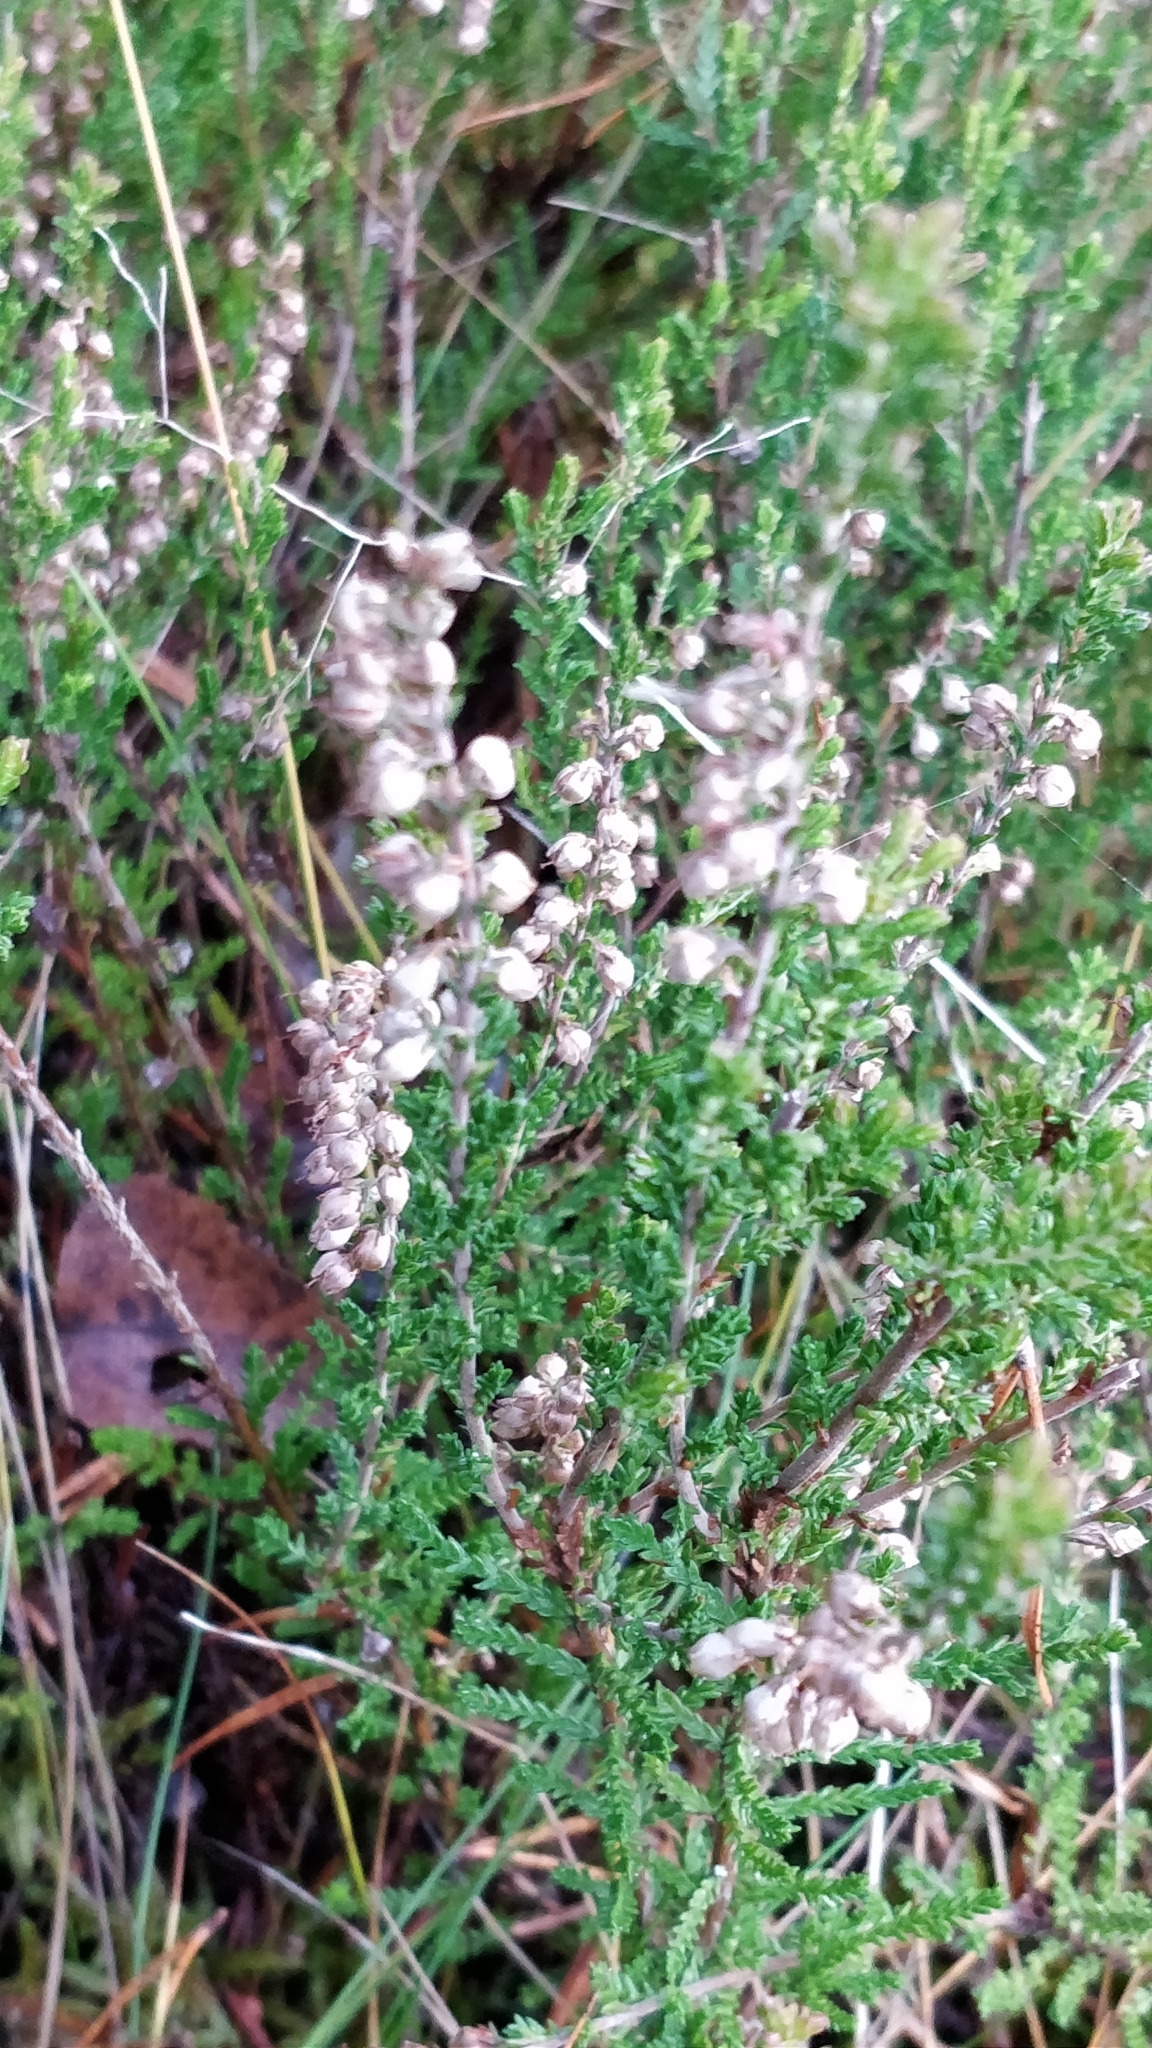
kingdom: Plantae
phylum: Tracheophyta
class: Magnoliopsida
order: Ericales
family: Ericaceae
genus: Calluna
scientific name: Calluna vulgaris
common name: Heather
